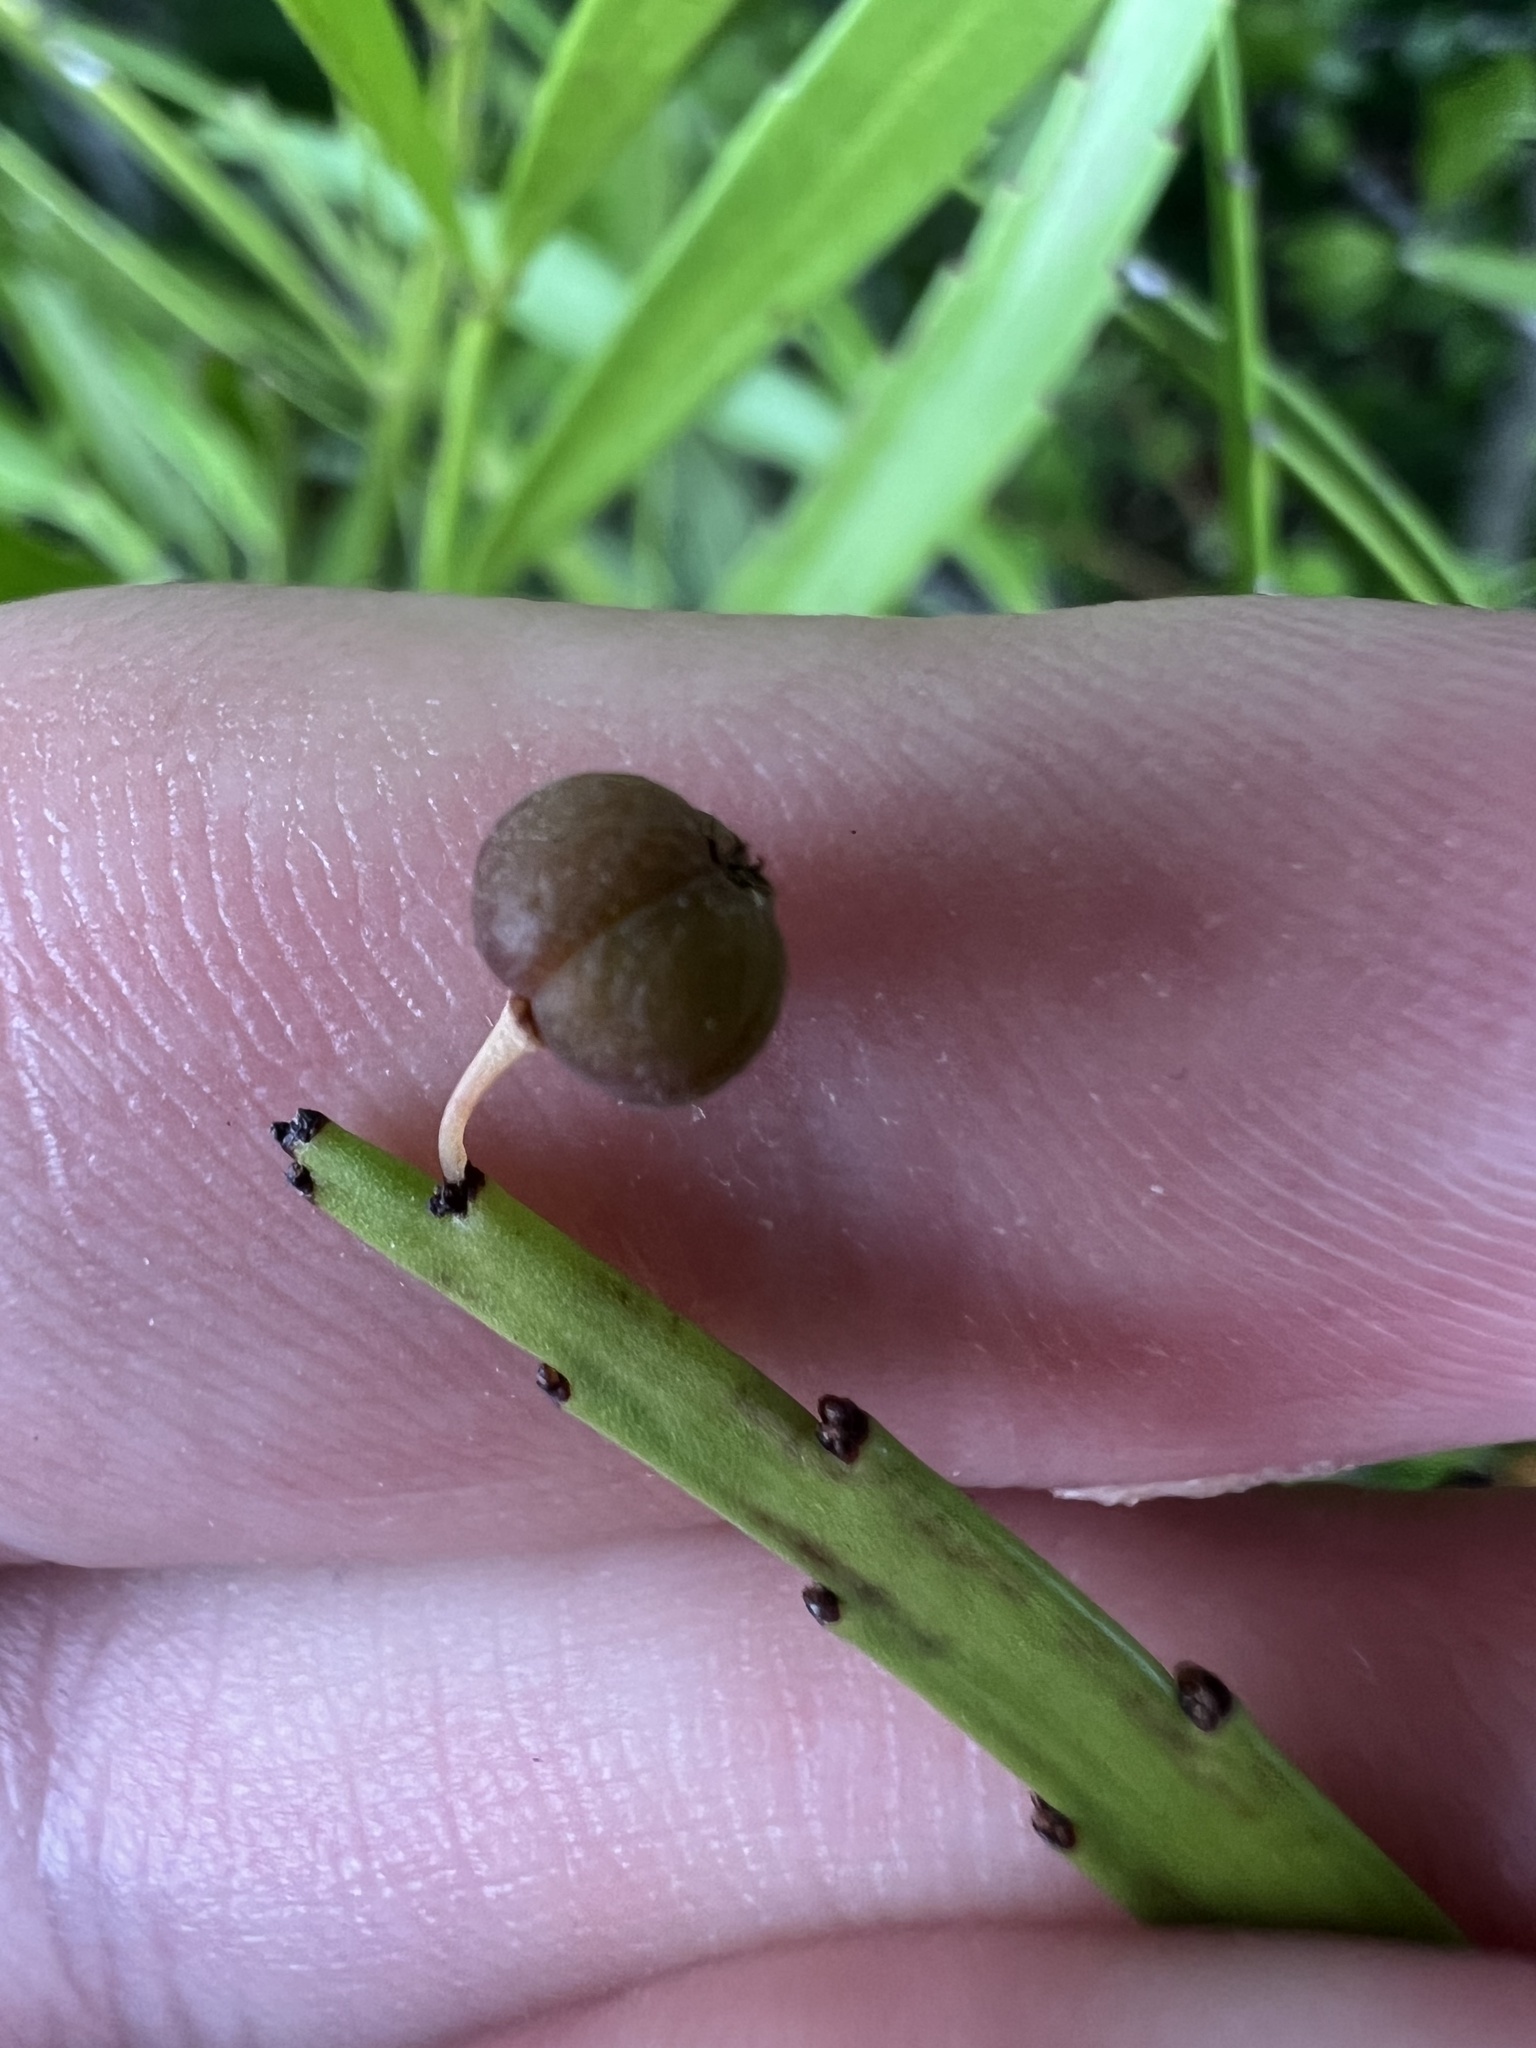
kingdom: Plantae
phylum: Tracheophyta
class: Magnoliopsida
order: Malpighiales
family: Phyllanthaceae
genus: Phyllanthus
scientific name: Phyllanthus angustifolius
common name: Foliage flower
